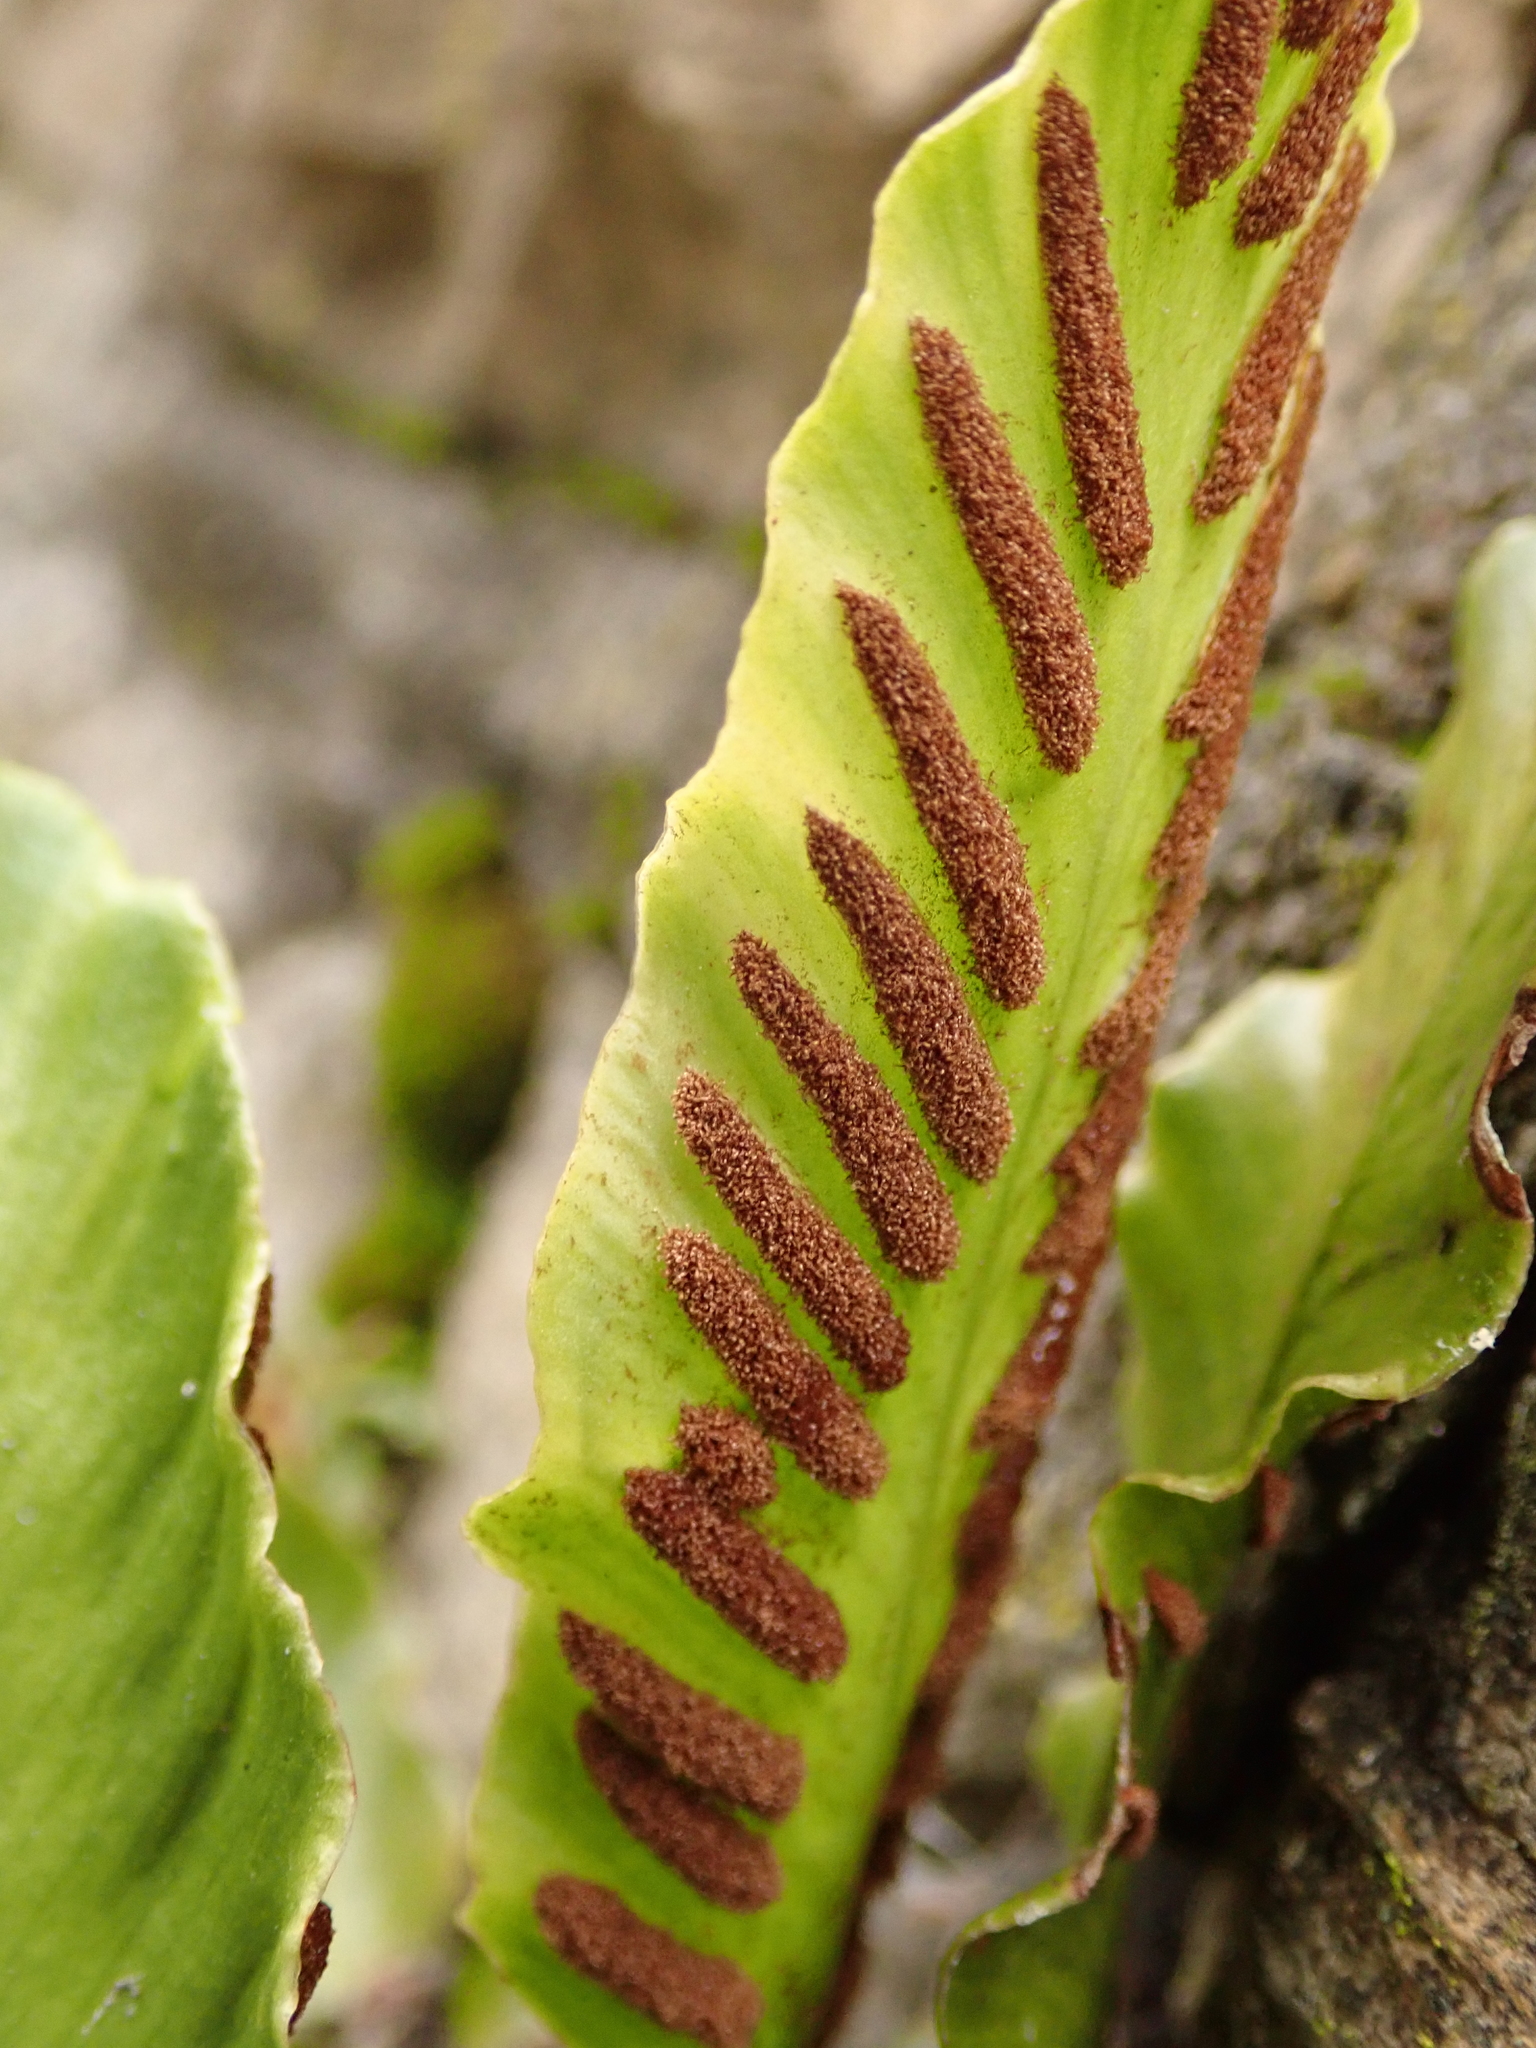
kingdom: Plantae
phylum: Tracheophyta
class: Polypodiopsida
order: Polypodiales
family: Aspleniaceae
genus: Asplenium
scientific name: Asplenium scolopendrium
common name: Hart's-tongue fern
